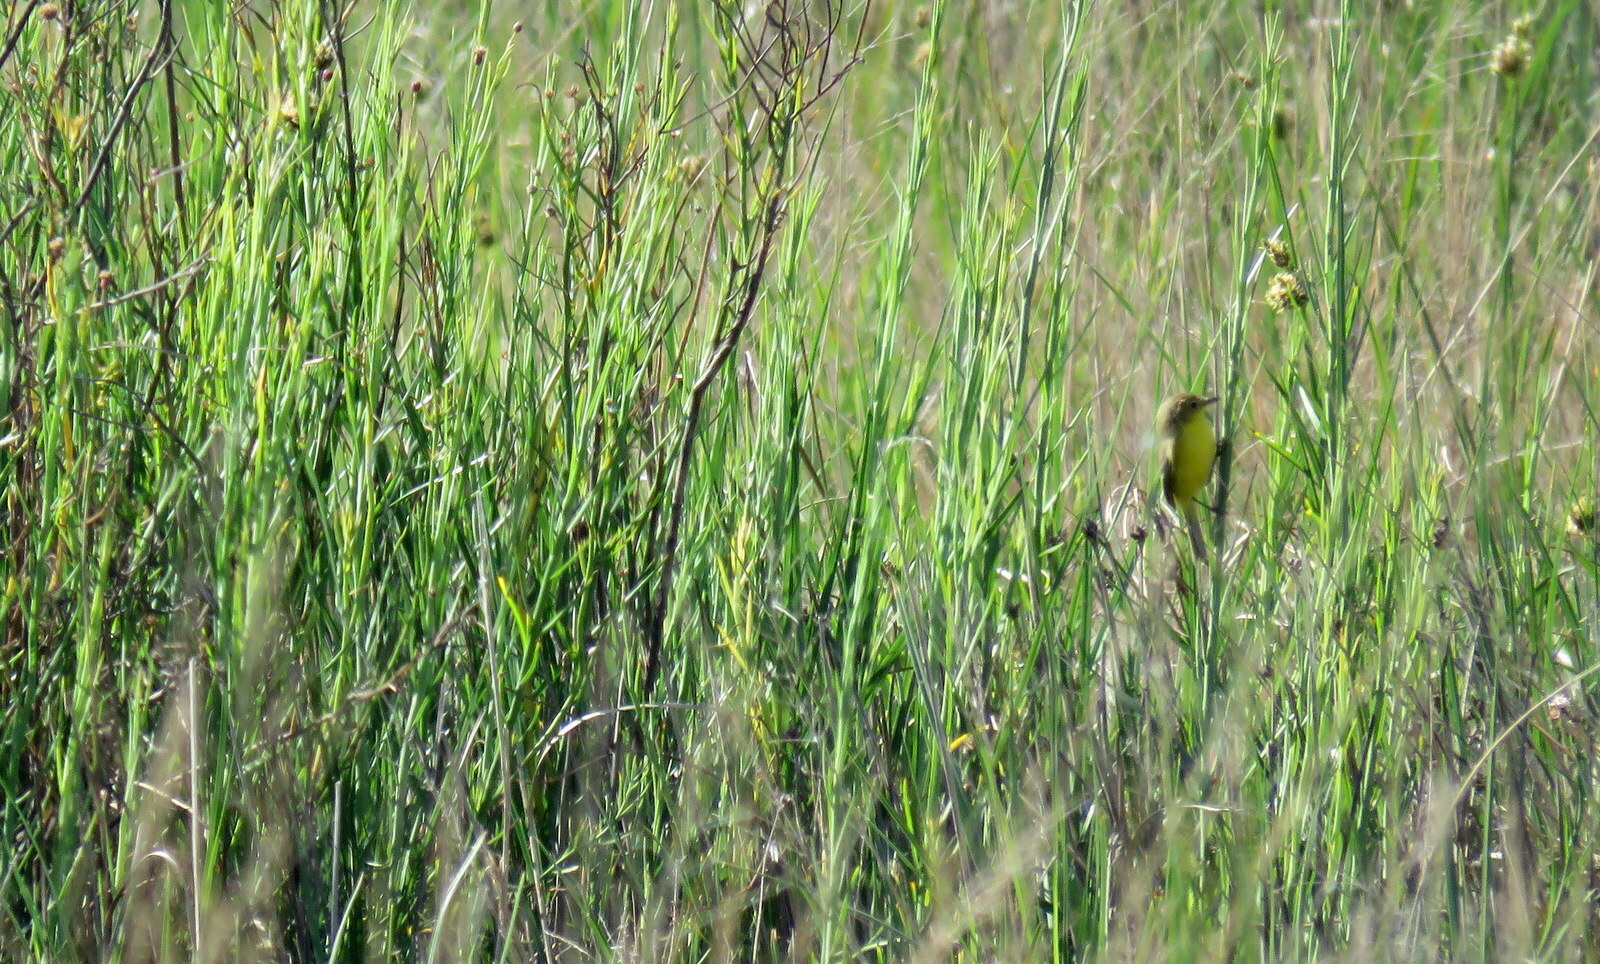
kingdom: Animalia
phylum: Chordata
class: Aves
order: Passeriformes
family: Tyrannidae
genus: Pseudocolopteryx
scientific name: Pseudocolopteryx dinelliana
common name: Dinelli's doradito
